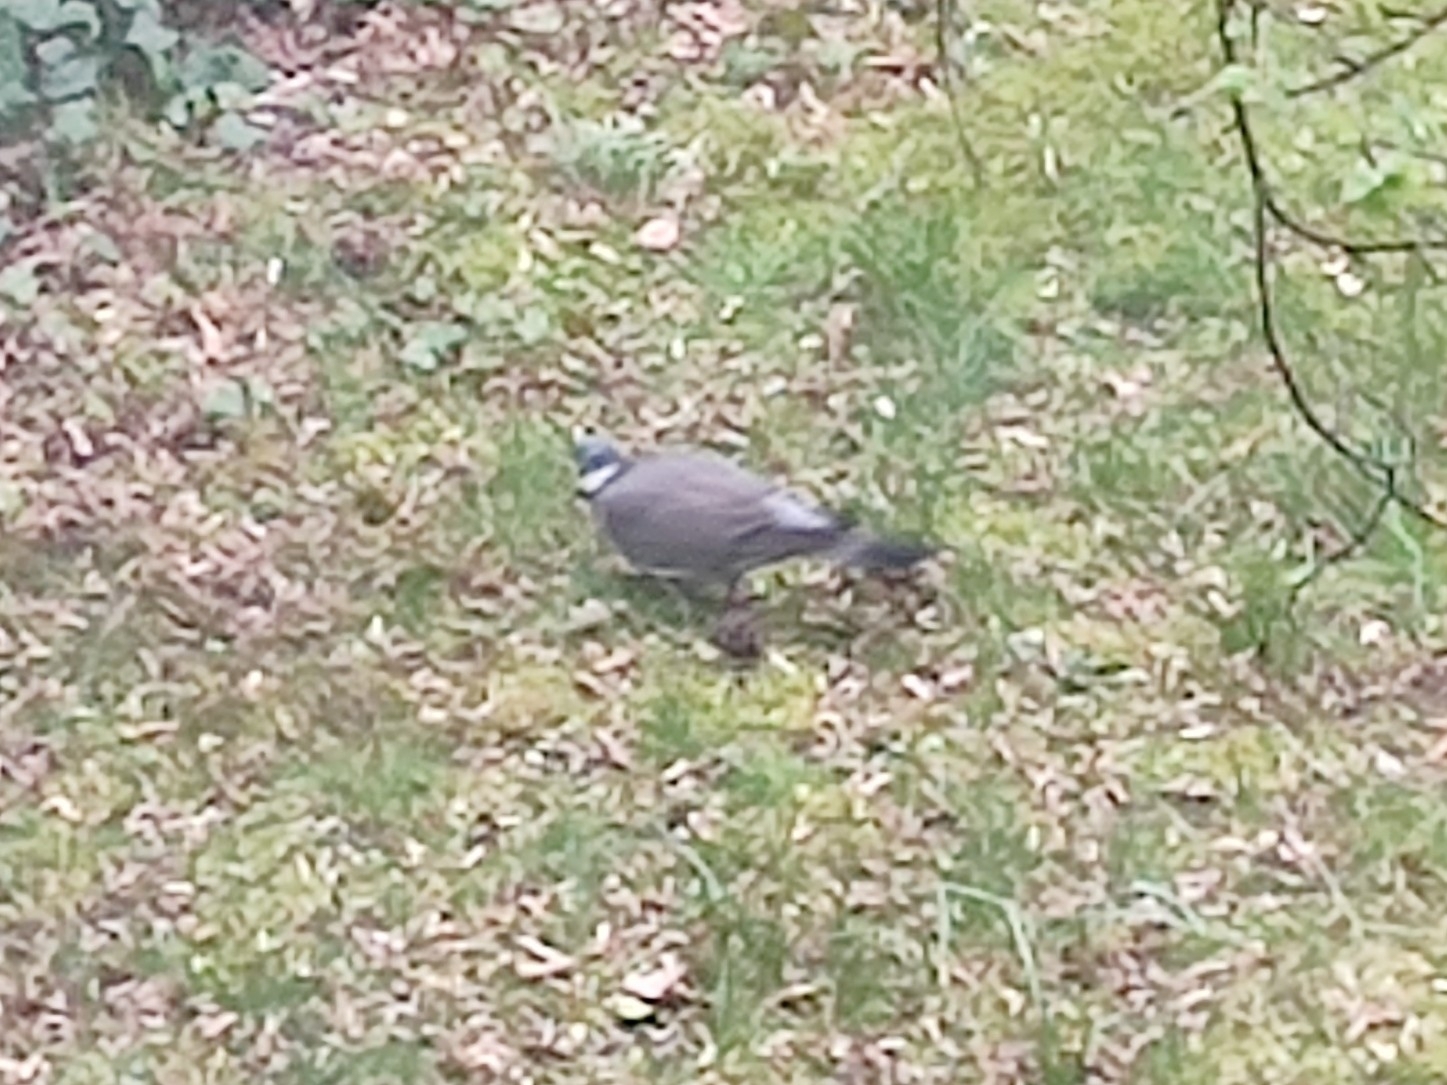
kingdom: Animalia
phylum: Chordata
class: Aves
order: Columbiformes
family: Columbidae
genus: Columba
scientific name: Columba palumbus
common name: Common wood pigeon
